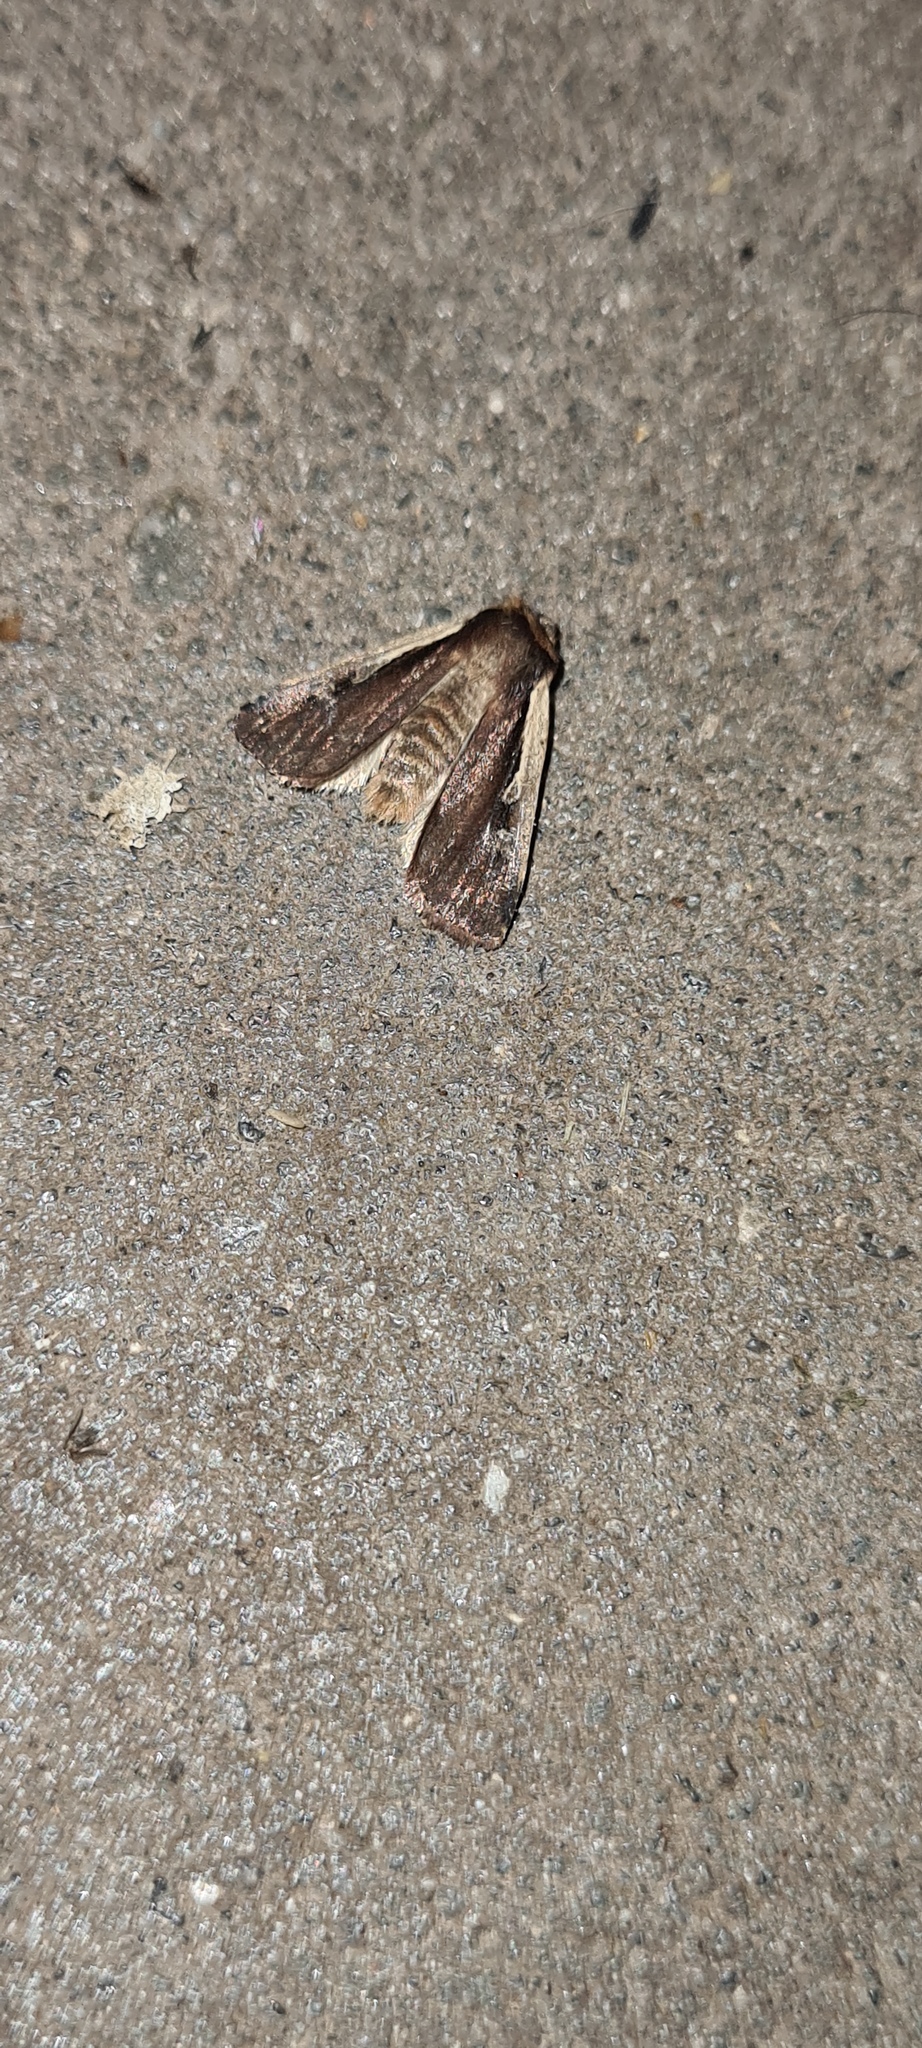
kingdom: Animalia
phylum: Arthropoda
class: Insecta
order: Lepidoptera
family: Noctuidae
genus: Ochropleura
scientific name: Ochropleura plecta
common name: Flame shoulder
